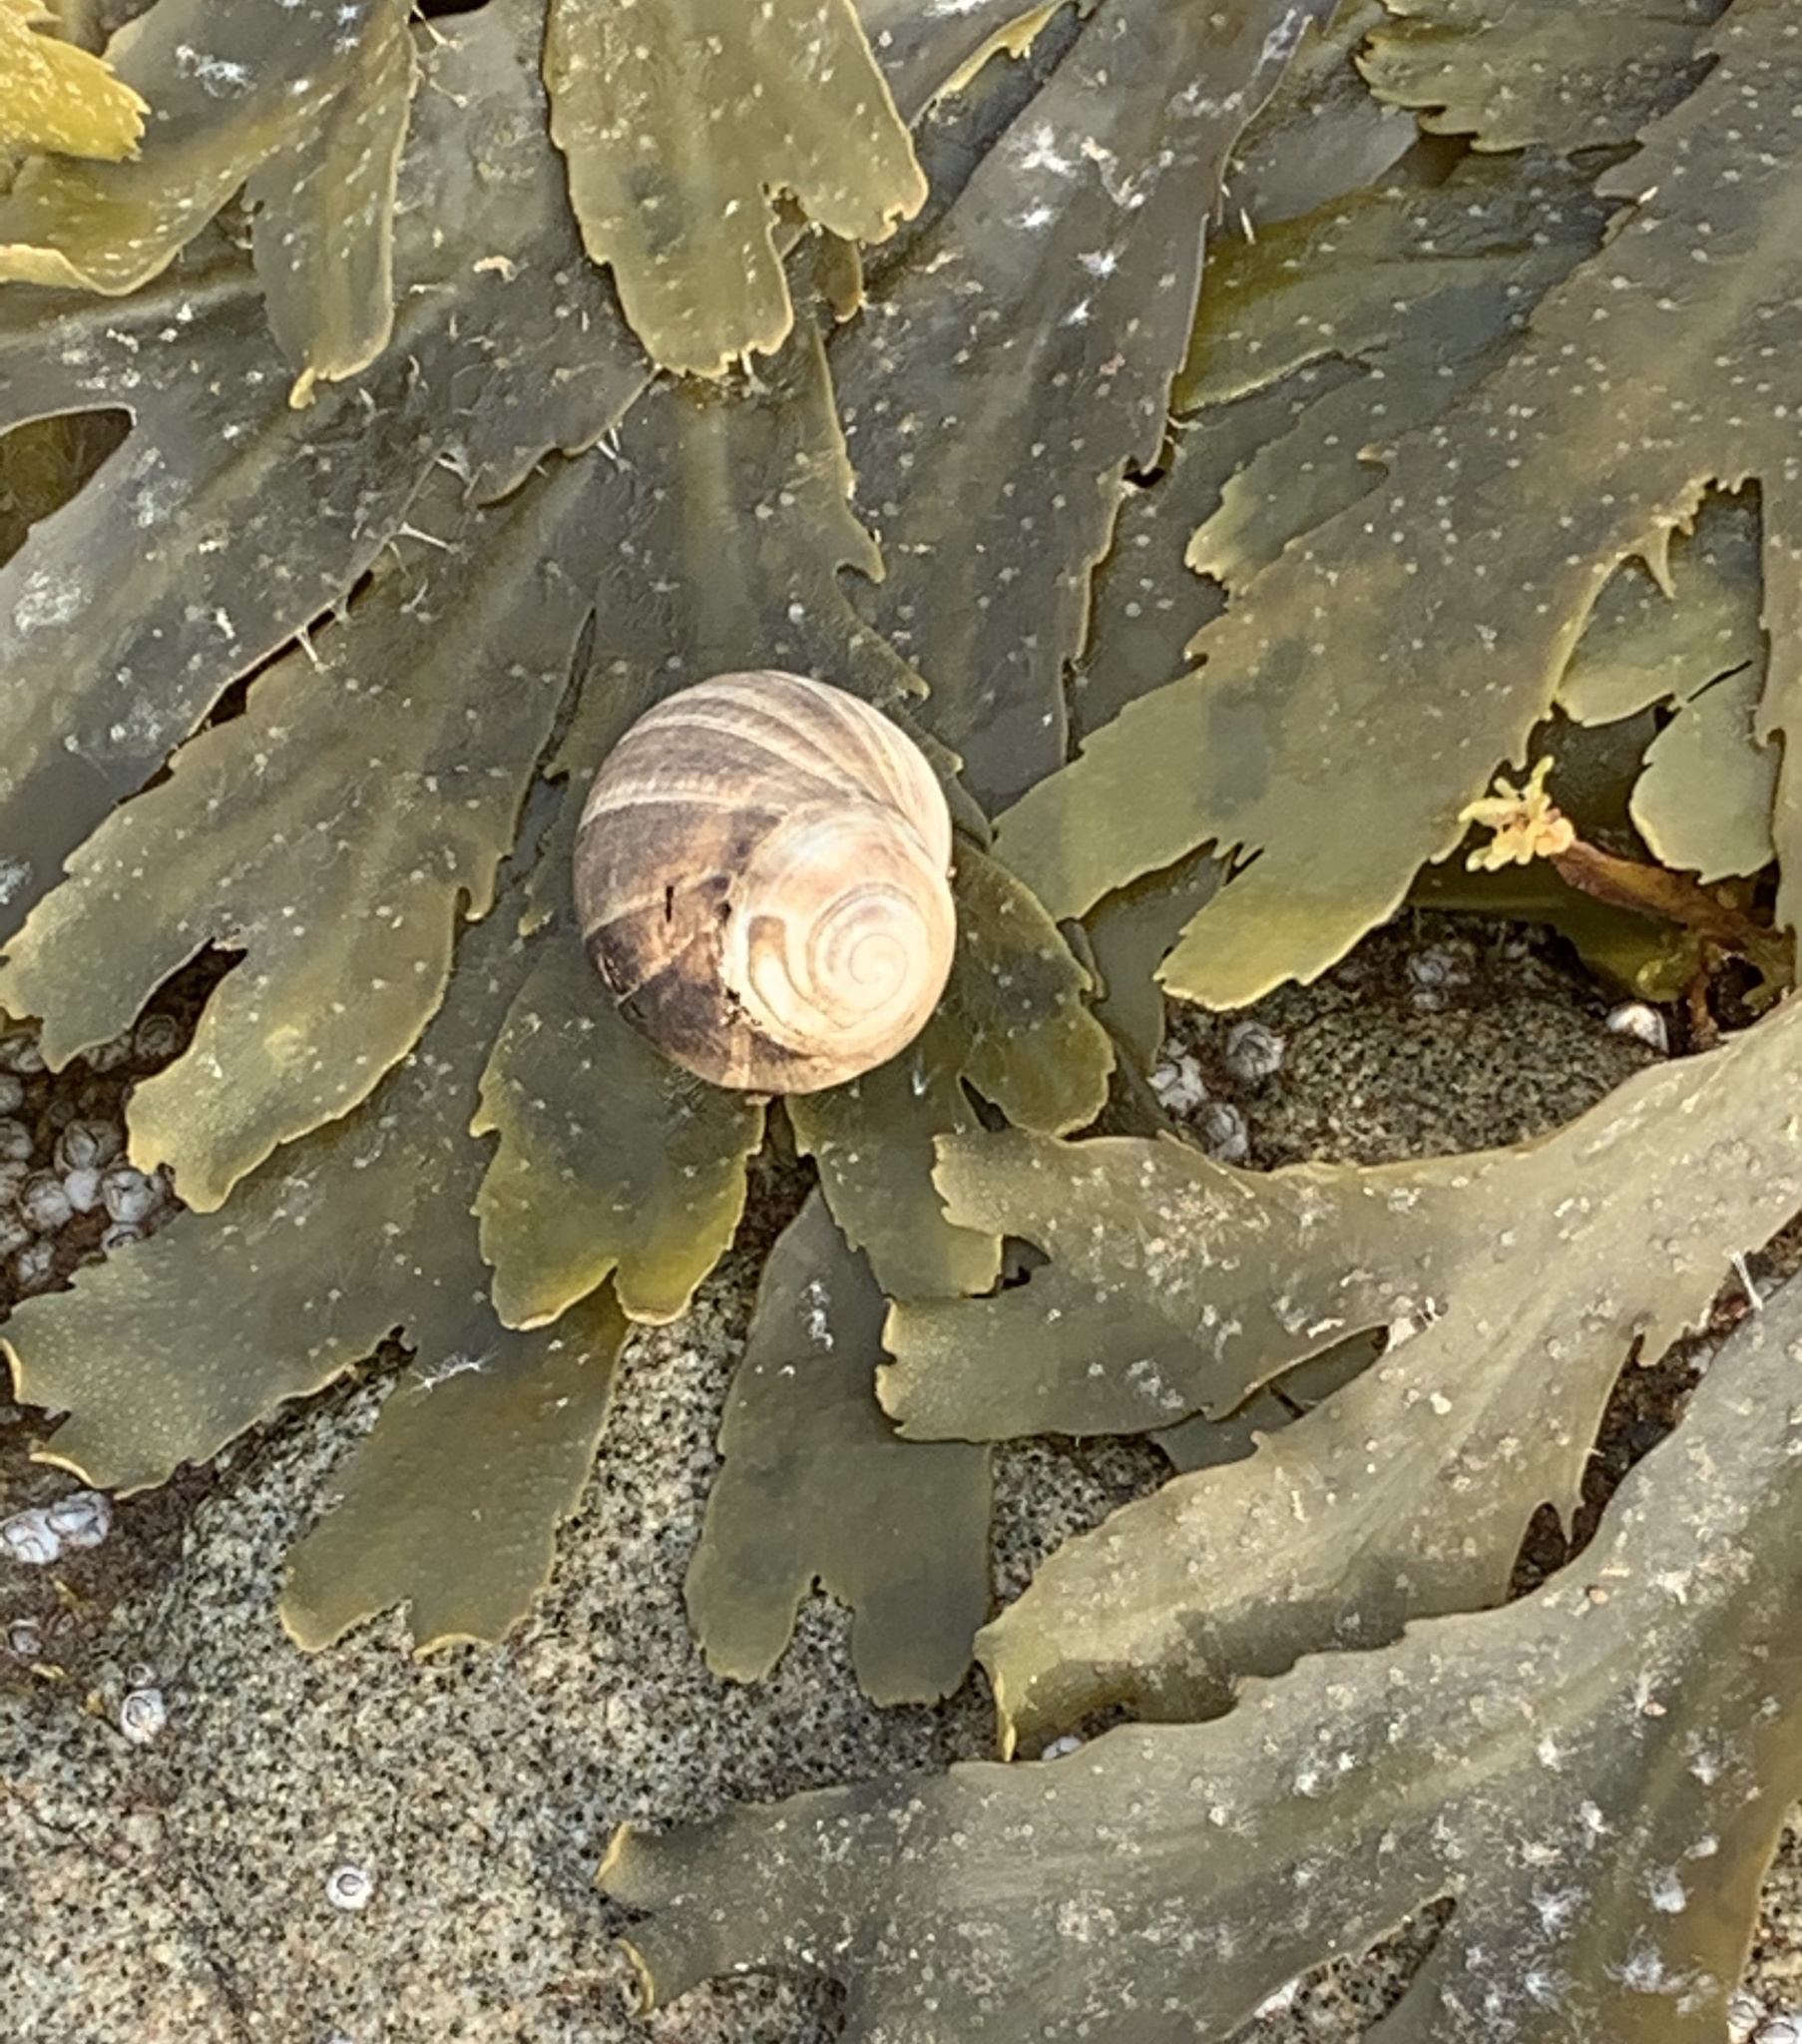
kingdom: Animalia
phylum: Mollusca
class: Gastropoda
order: Littorinimorpha
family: Littorinidae
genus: Littorina
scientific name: Littorina littorea
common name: Common periwinkle
